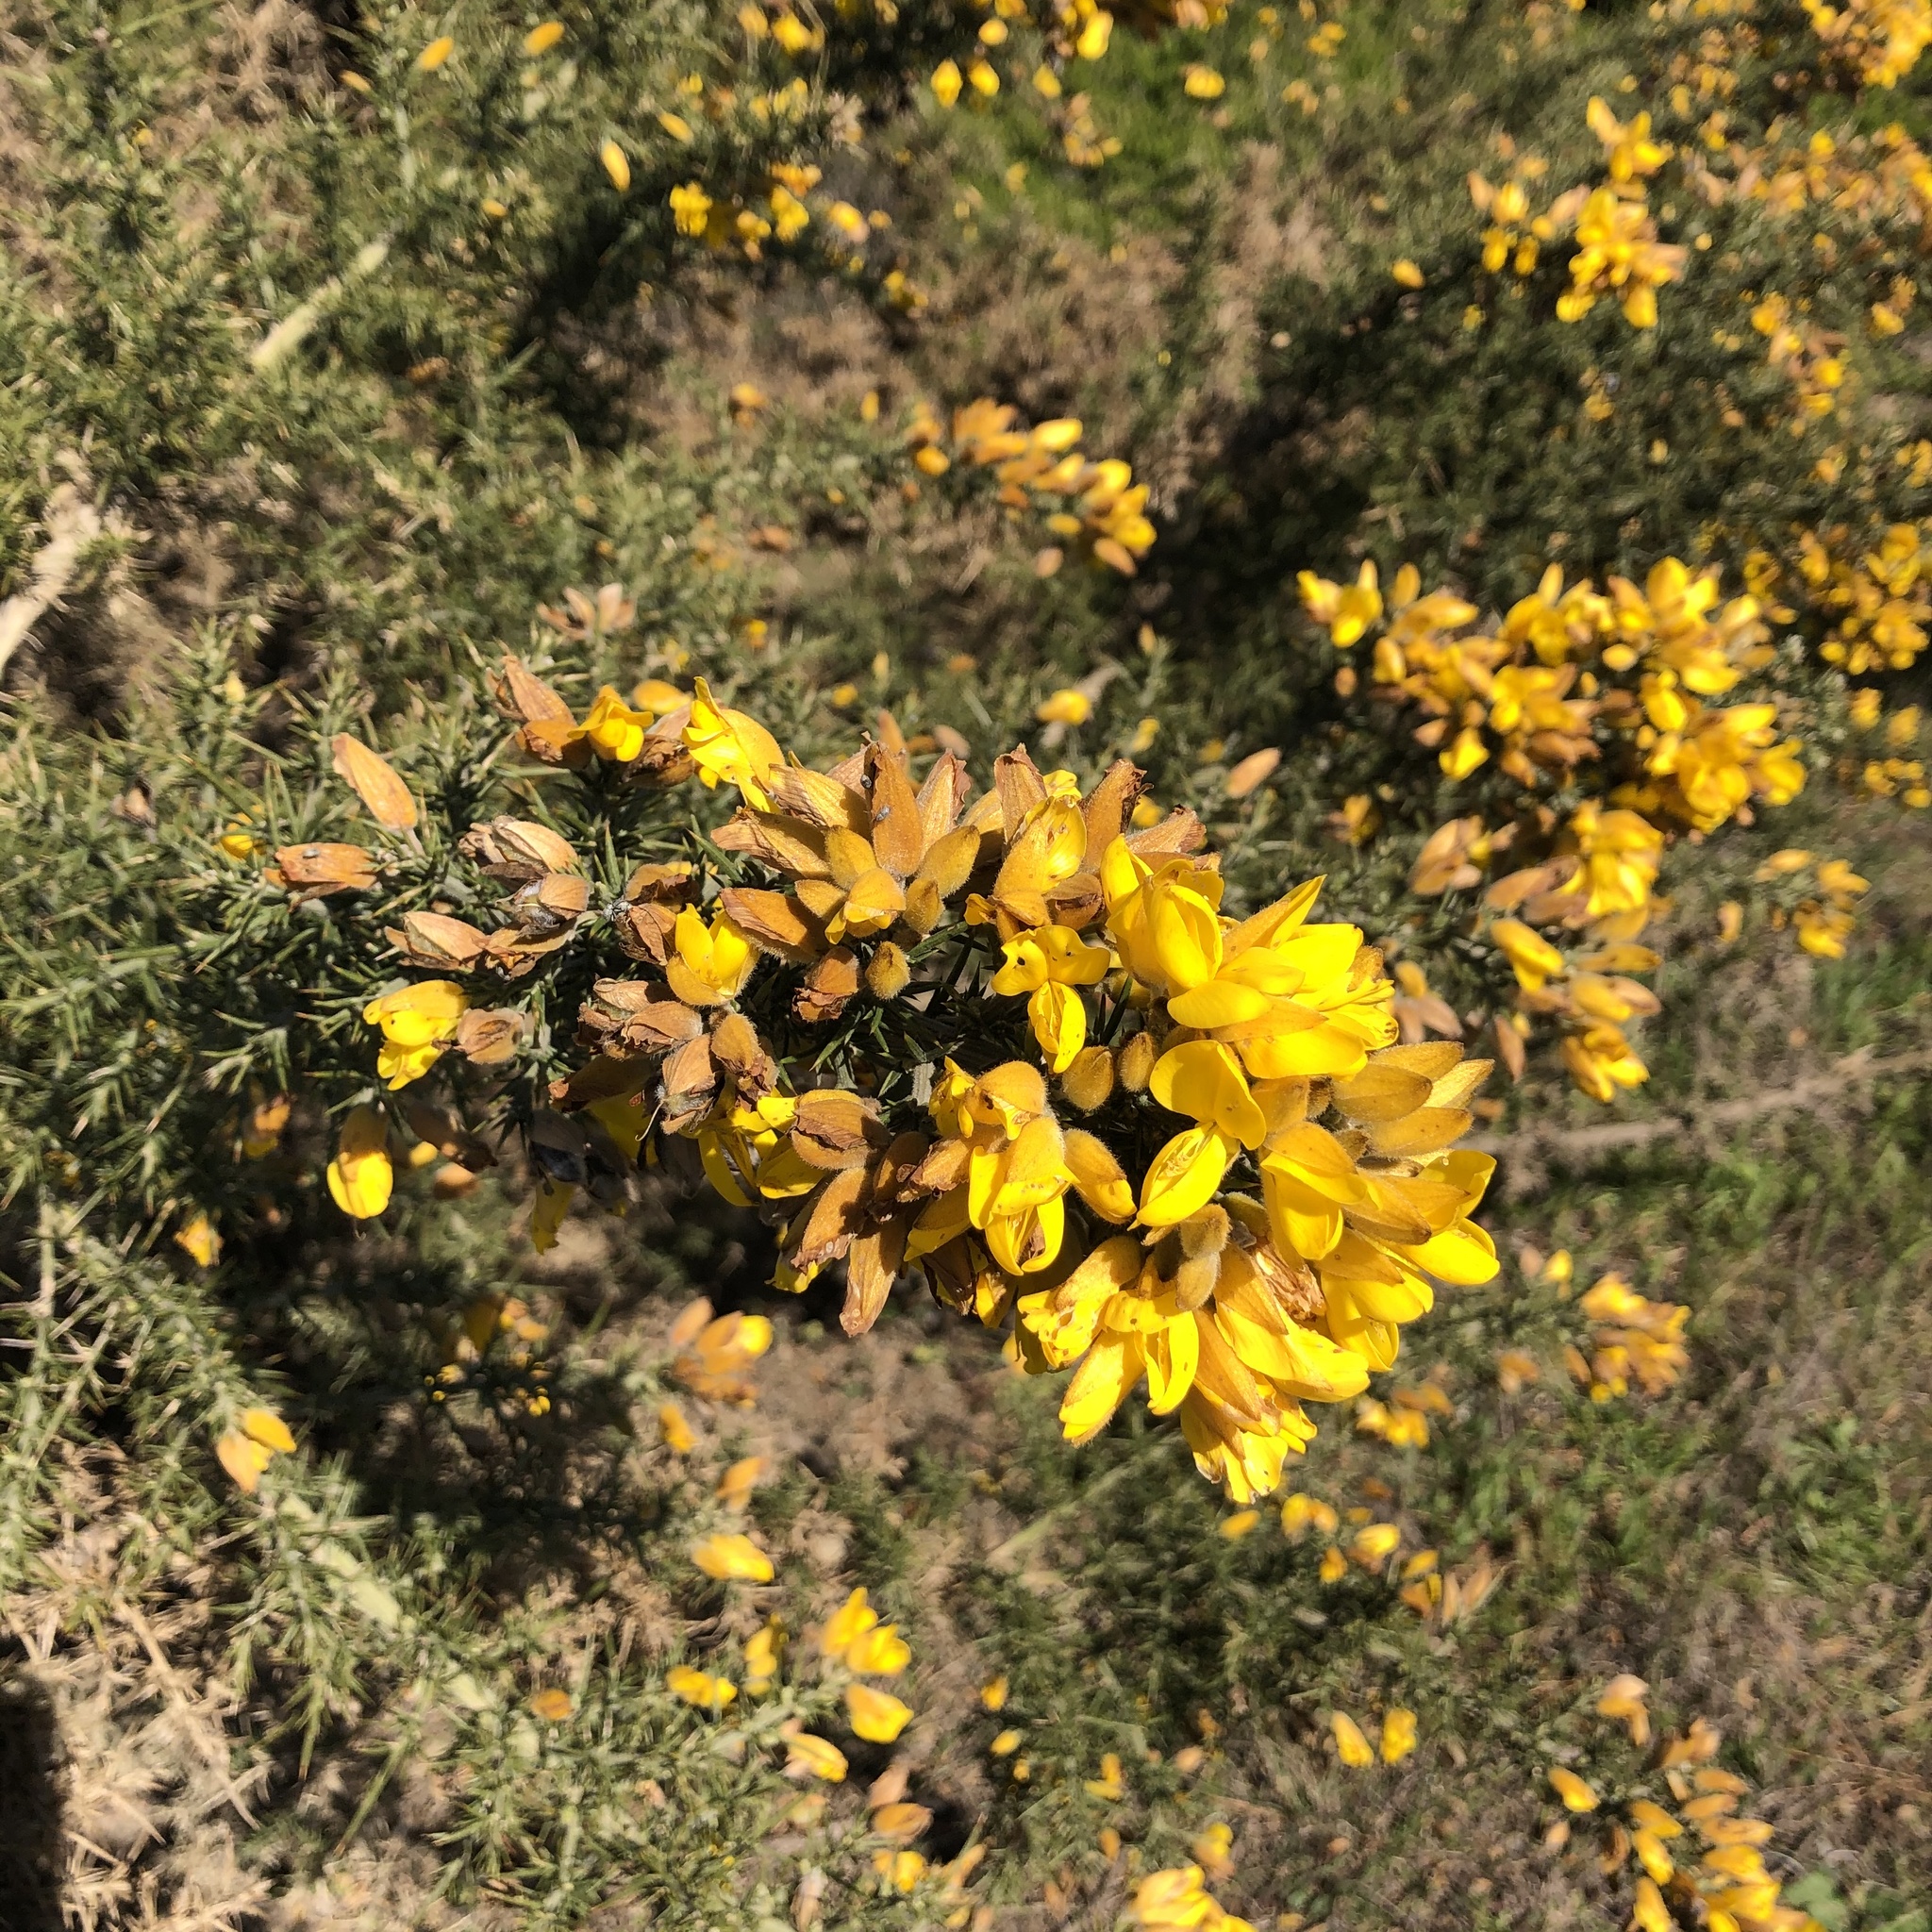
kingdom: Plantae
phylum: Tracheophyta
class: Magnoliopsida
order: Fabales
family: Fabaceae
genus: Ulex
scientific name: Ulex europaeus
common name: Common gorse
